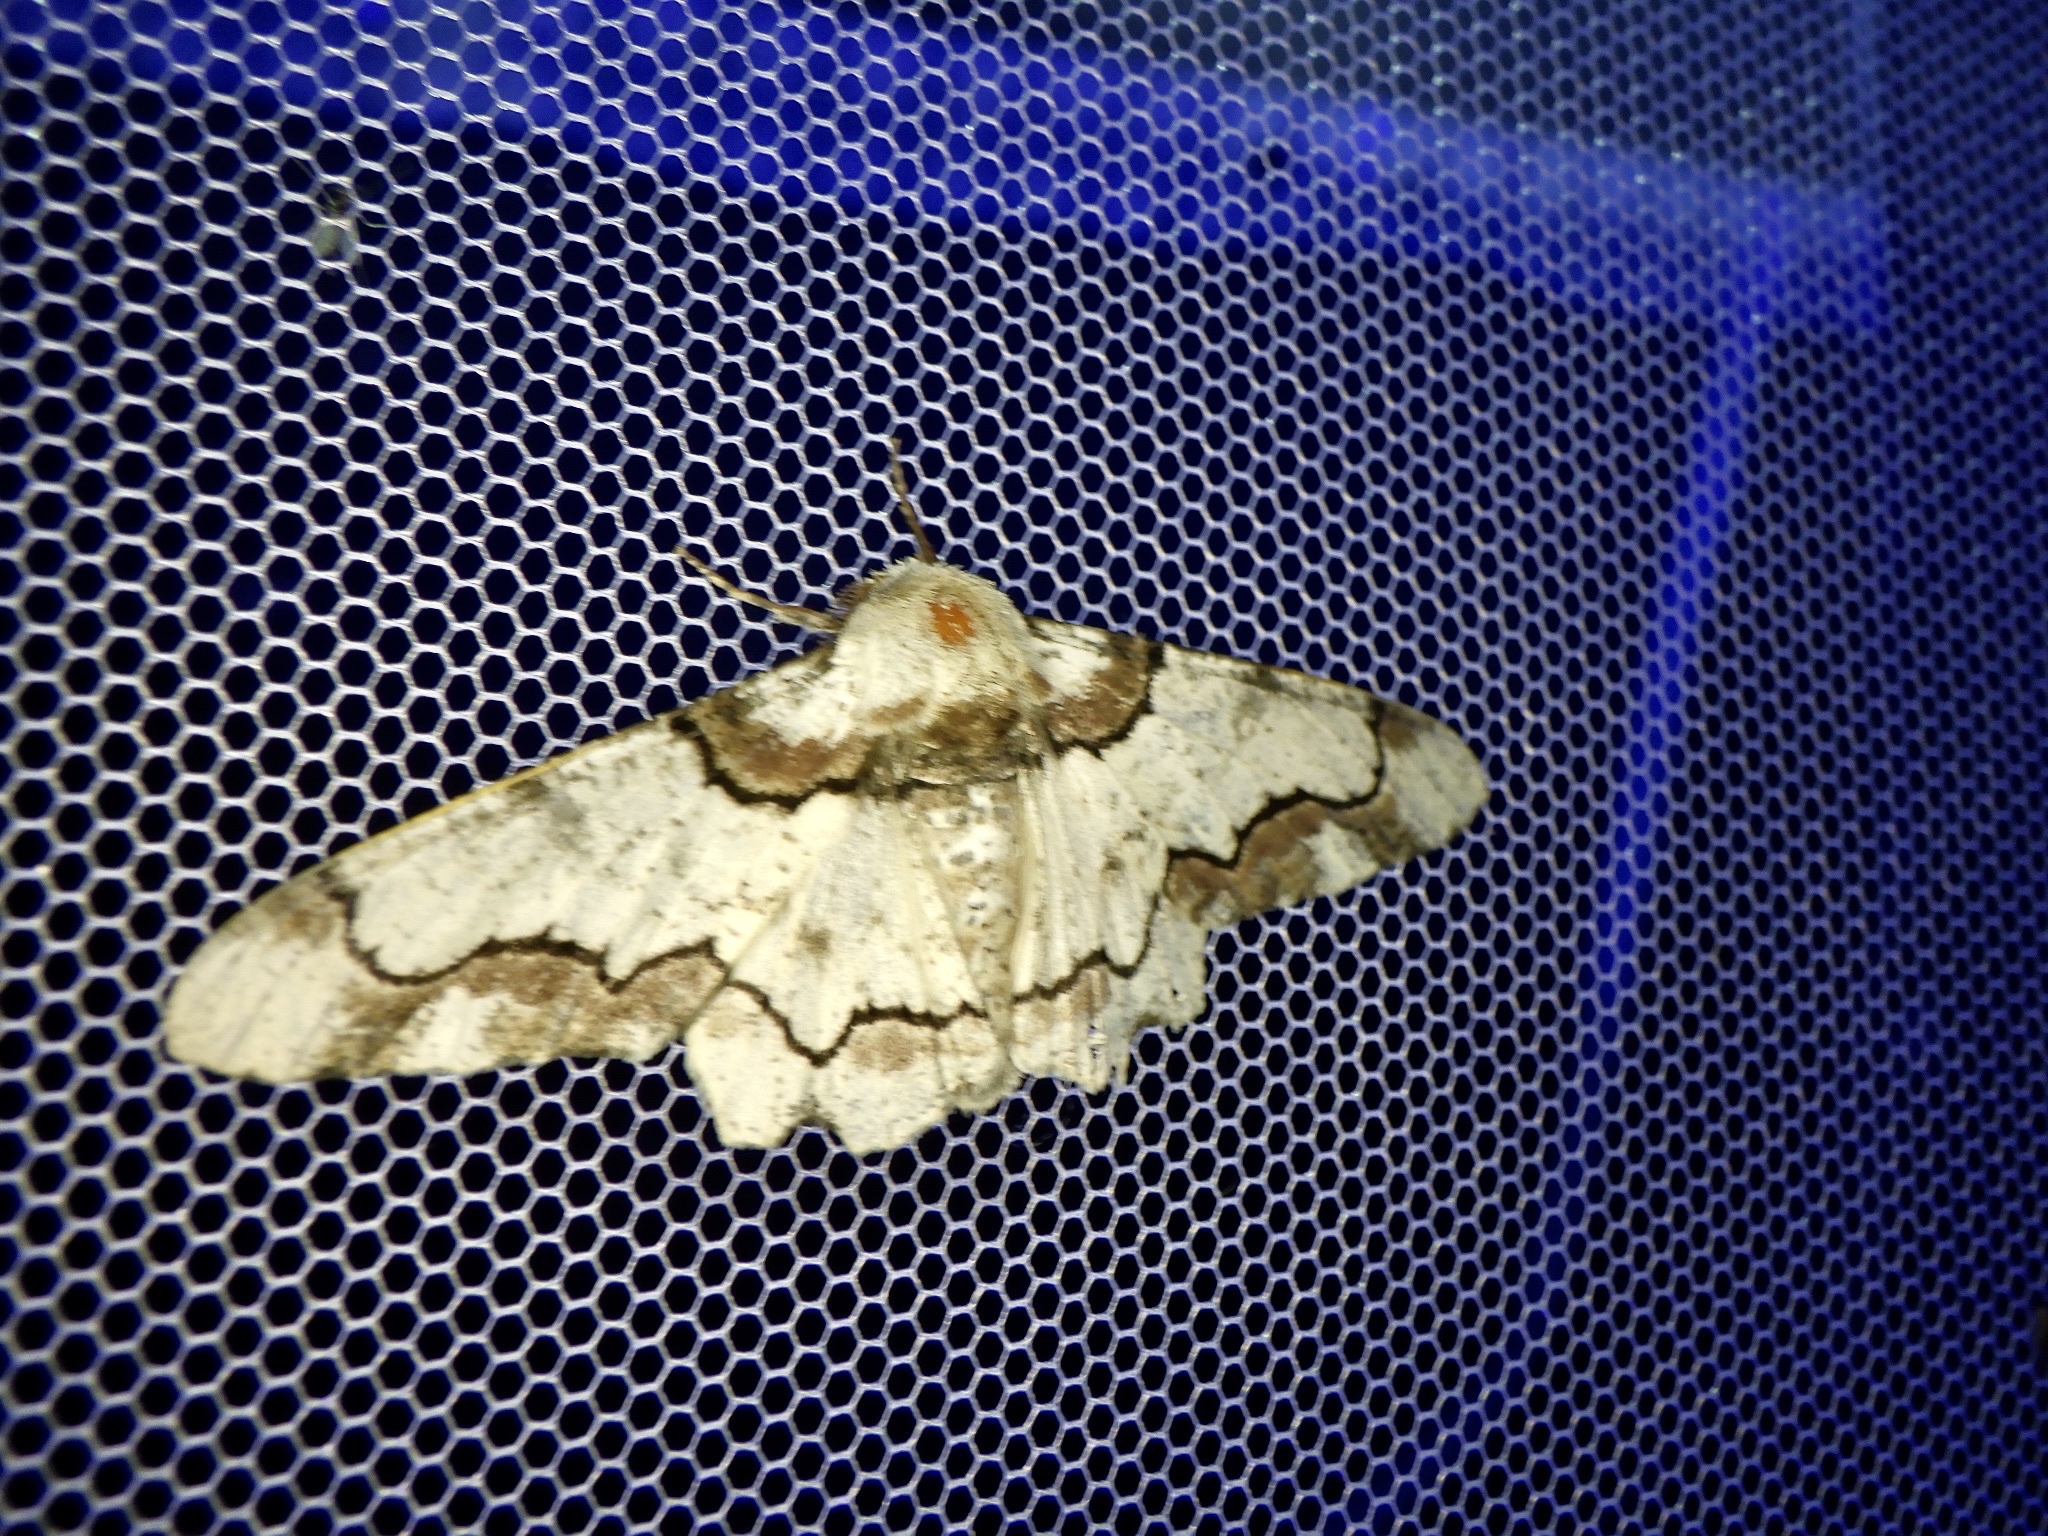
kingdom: Animalia
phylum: Arthropoda
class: Insecta
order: Lepidoptera
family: Geometridae
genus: Biston
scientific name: Biston regalis
